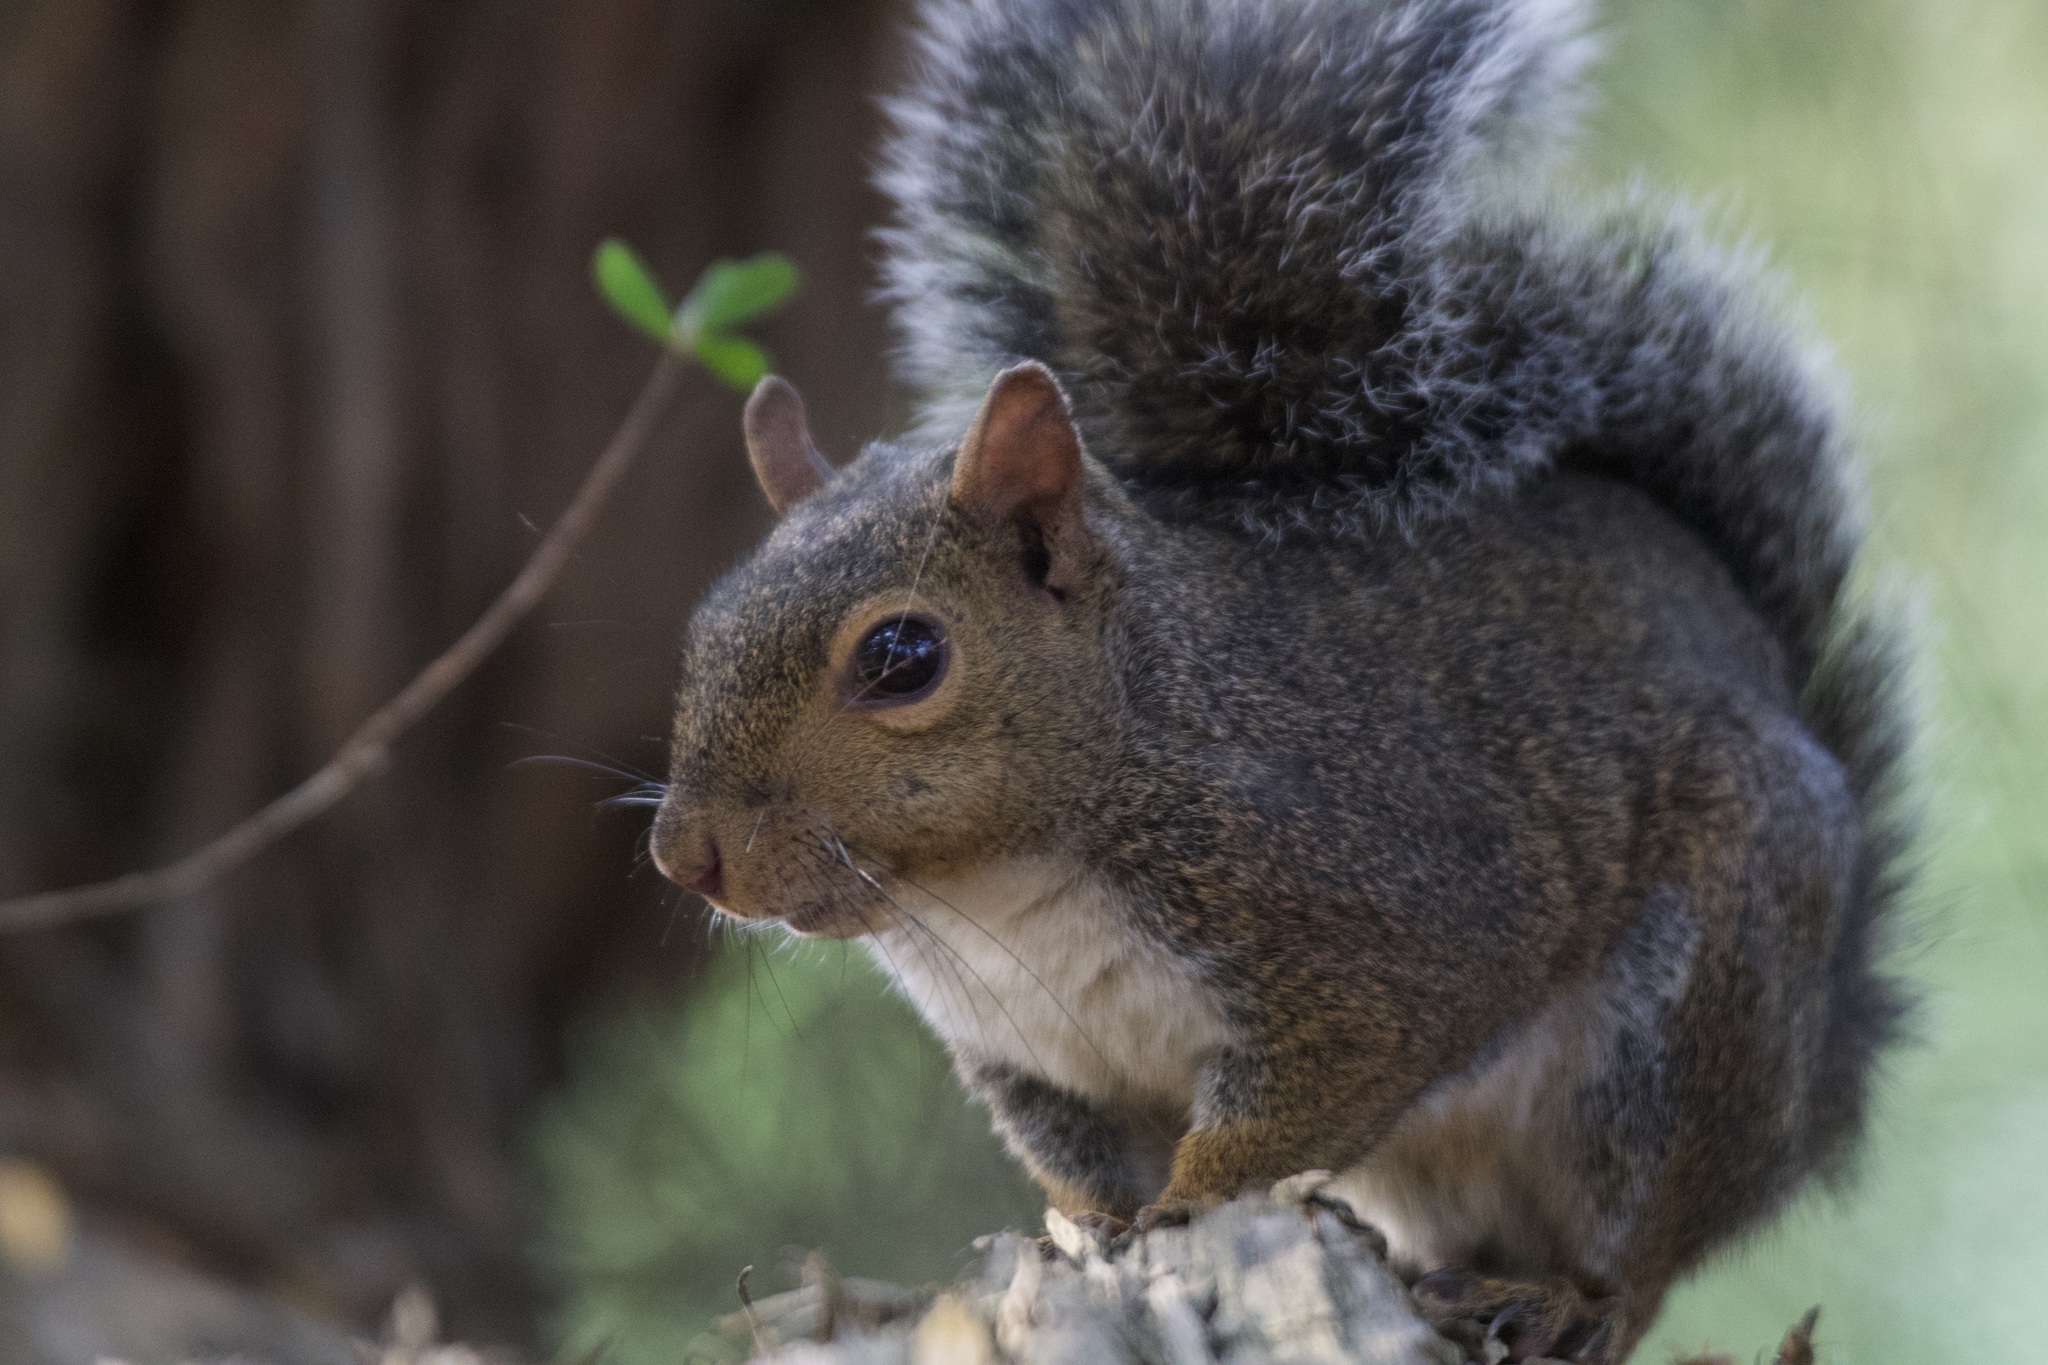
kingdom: Animalia
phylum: Chordata
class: Mammalia
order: Rodentia
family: Sciuridae
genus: Sciurus
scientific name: Sciurus carolinensis
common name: Eastern gray squirrel
